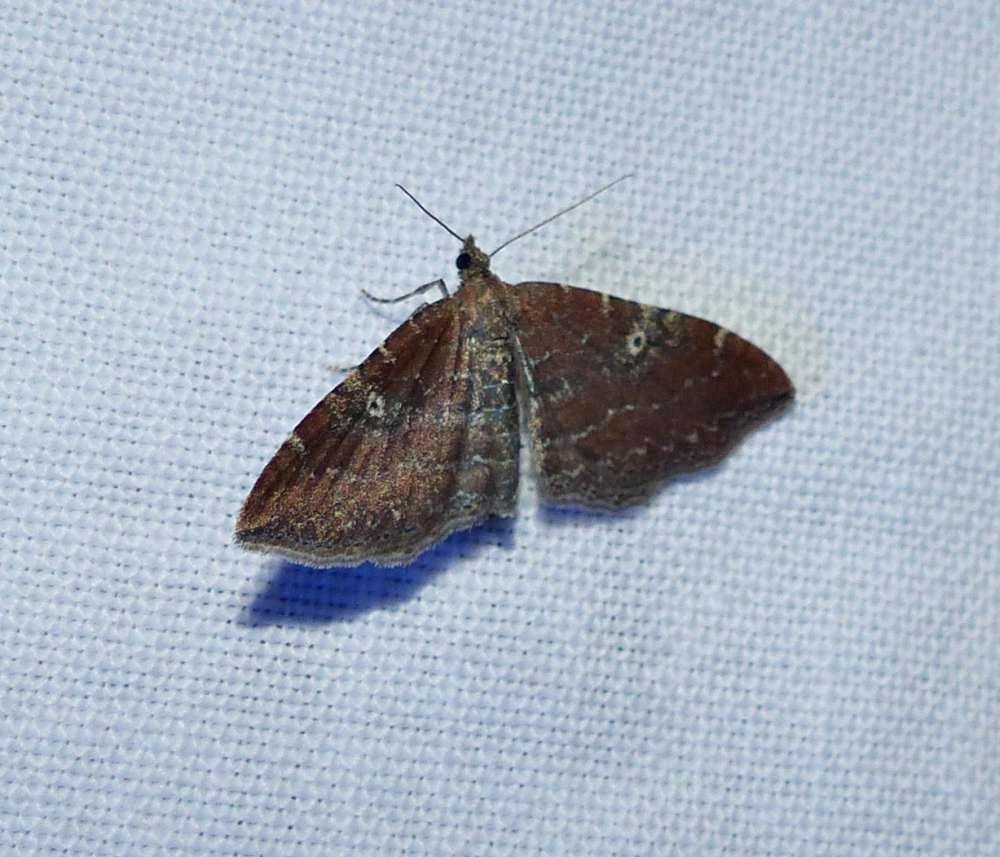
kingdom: Animalia
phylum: Arthropoda
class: Insecta
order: Lepidoptera
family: Geometridae
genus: Orthonama
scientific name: Orthonama obstipata
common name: The gem
